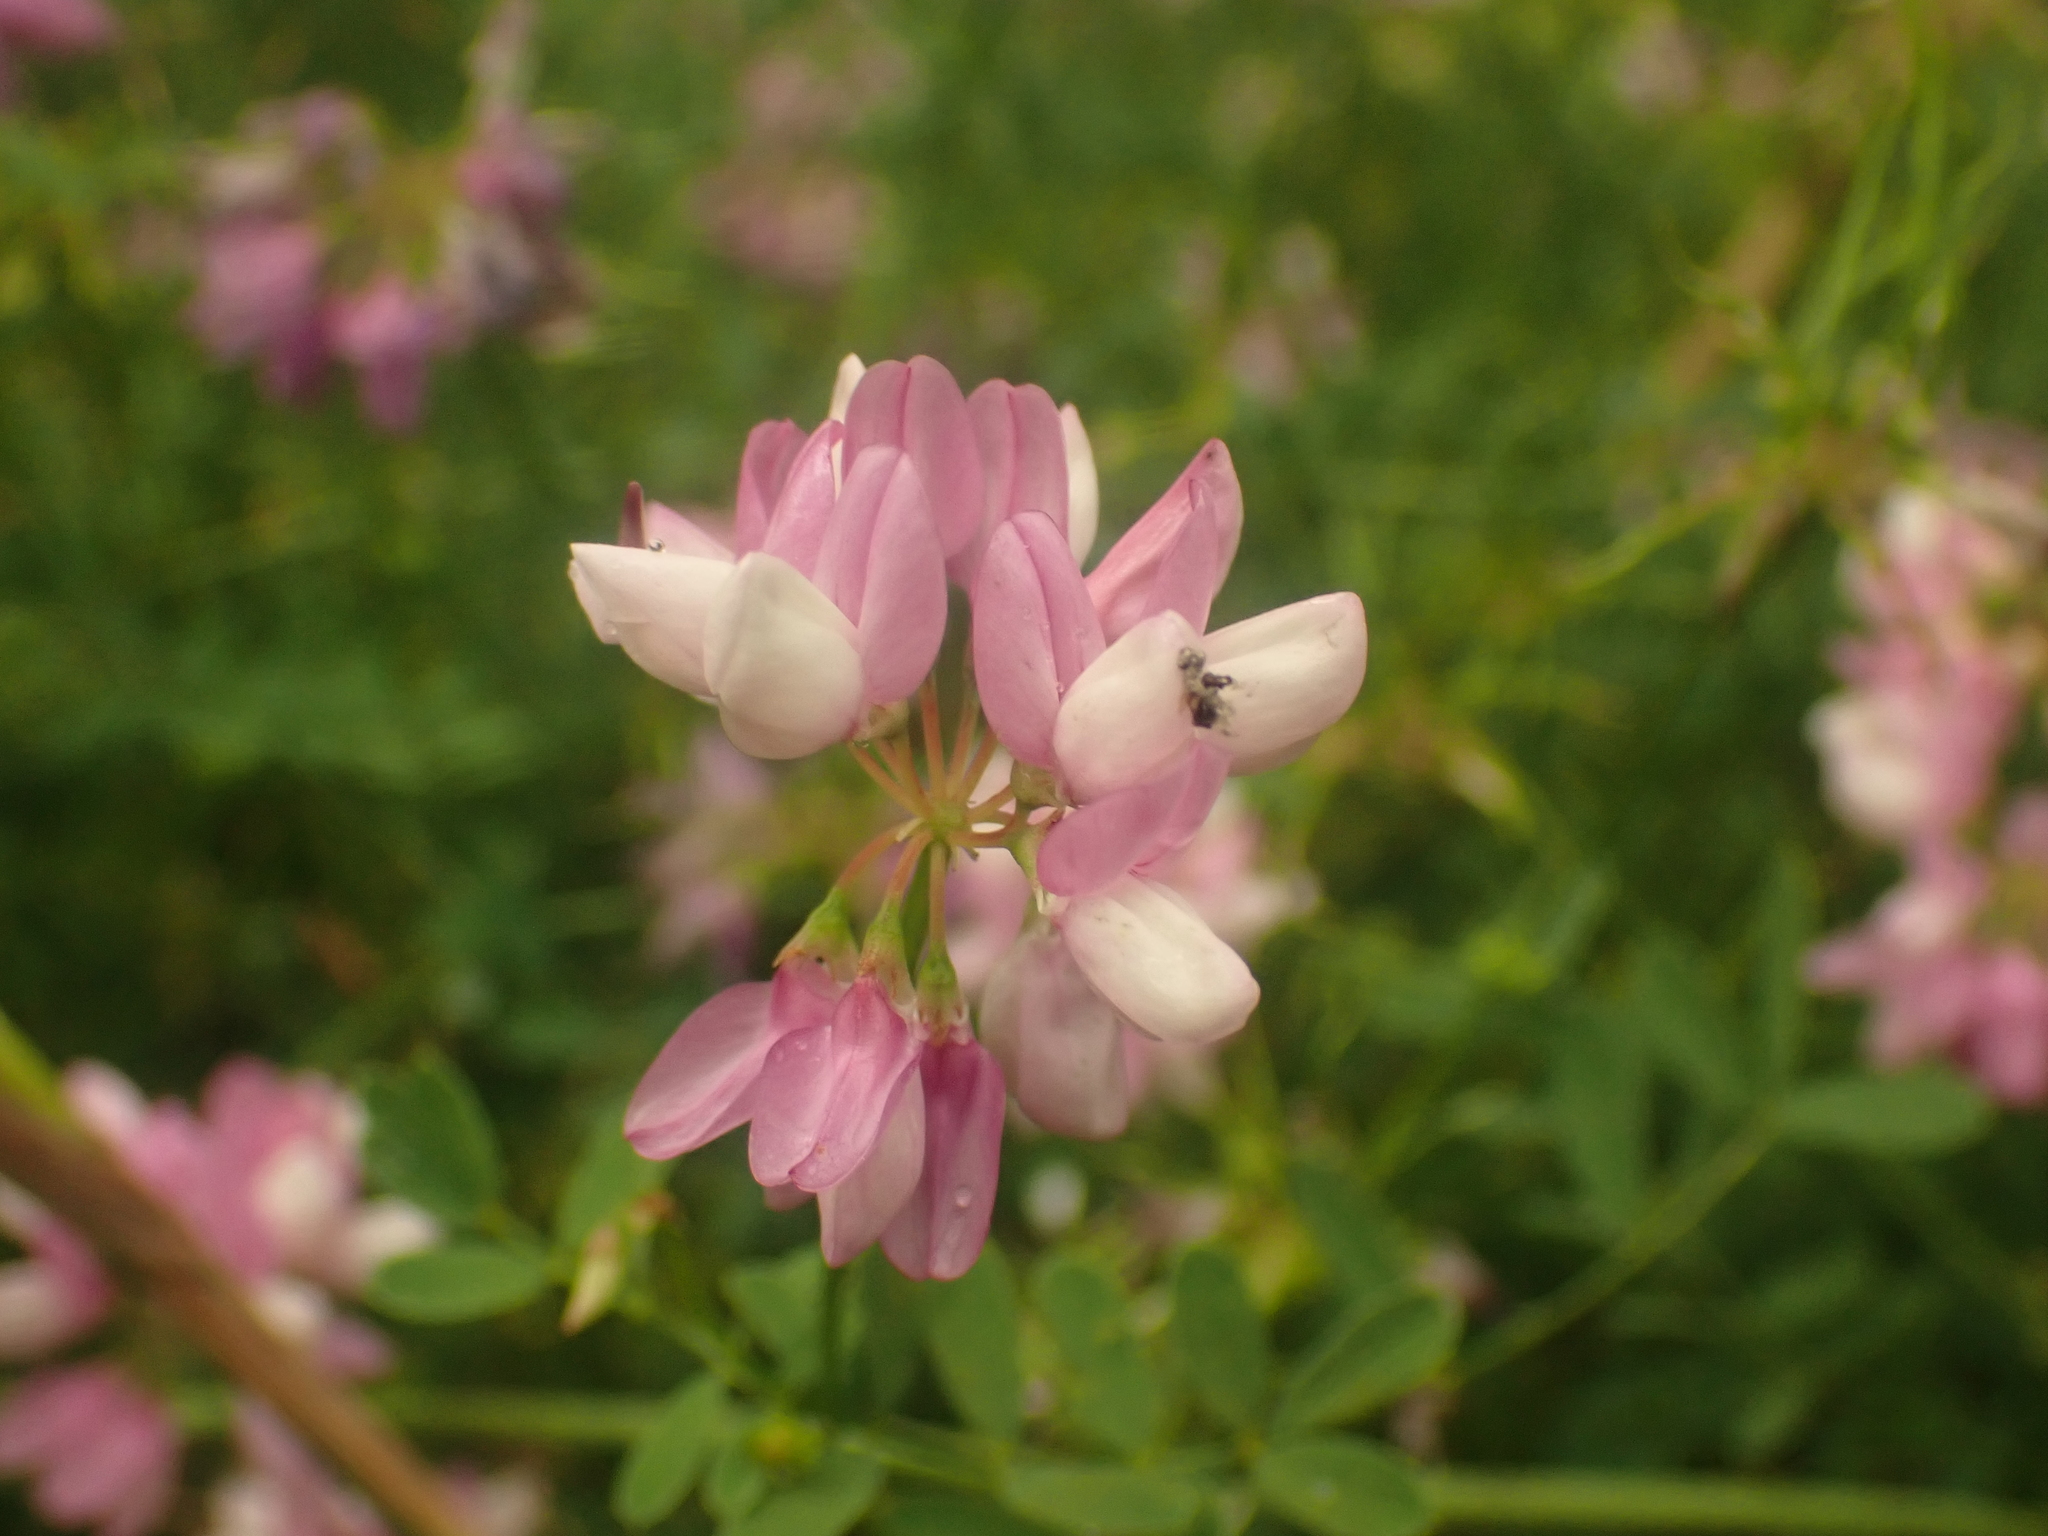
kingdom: Plantae
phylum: Tracheophyta
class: Magnoliopsida
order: Fabales
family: Fabaceae
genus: Coronilla
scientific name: Coronilla varia
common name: Crownvetch
